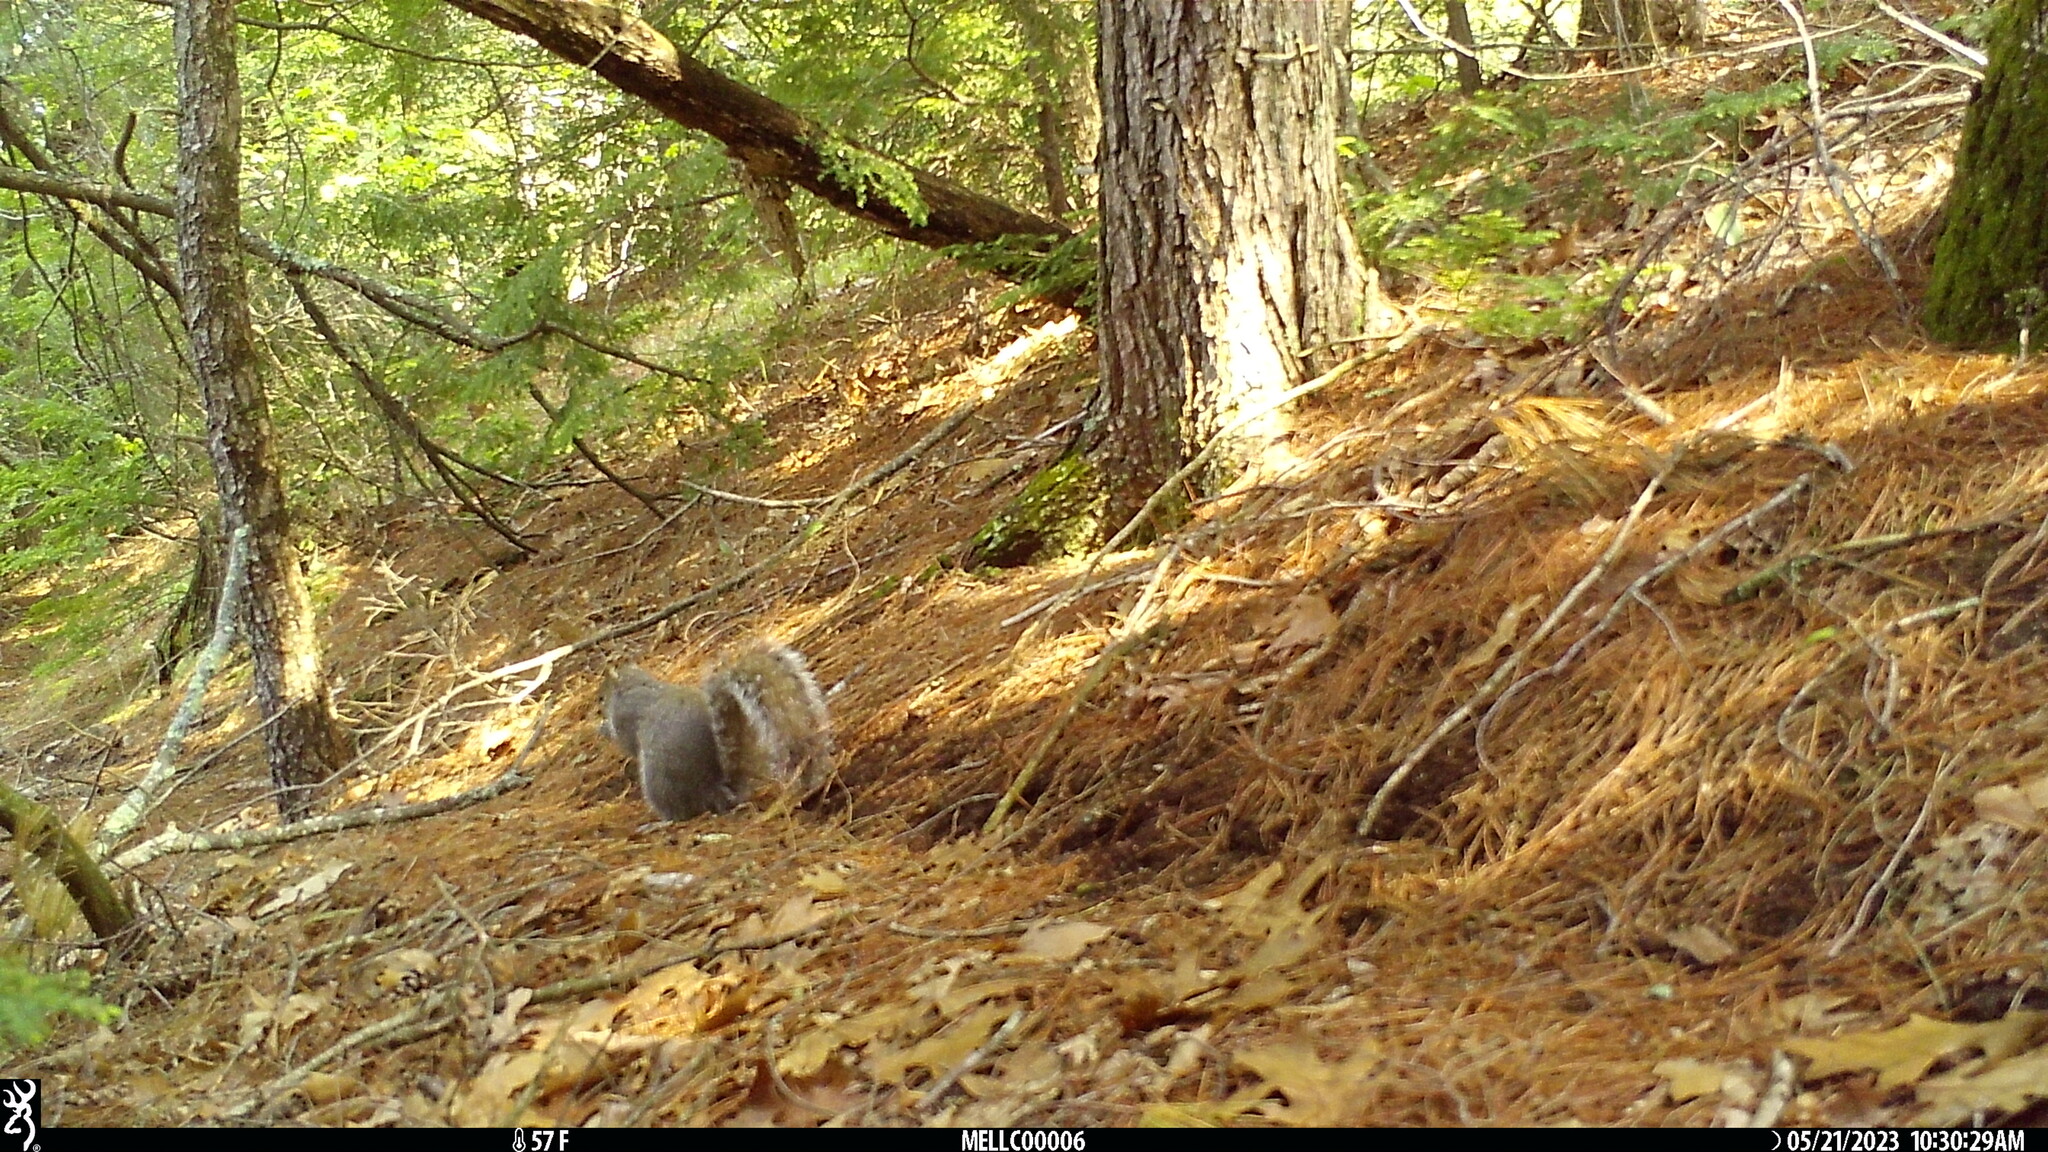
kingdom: Animalia
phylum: Chordata
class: Mammalia
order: Rodentia
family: Sciuridae
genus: Sciurus
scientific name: Sciurus carolinensis
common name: Eastern gray squirrel
